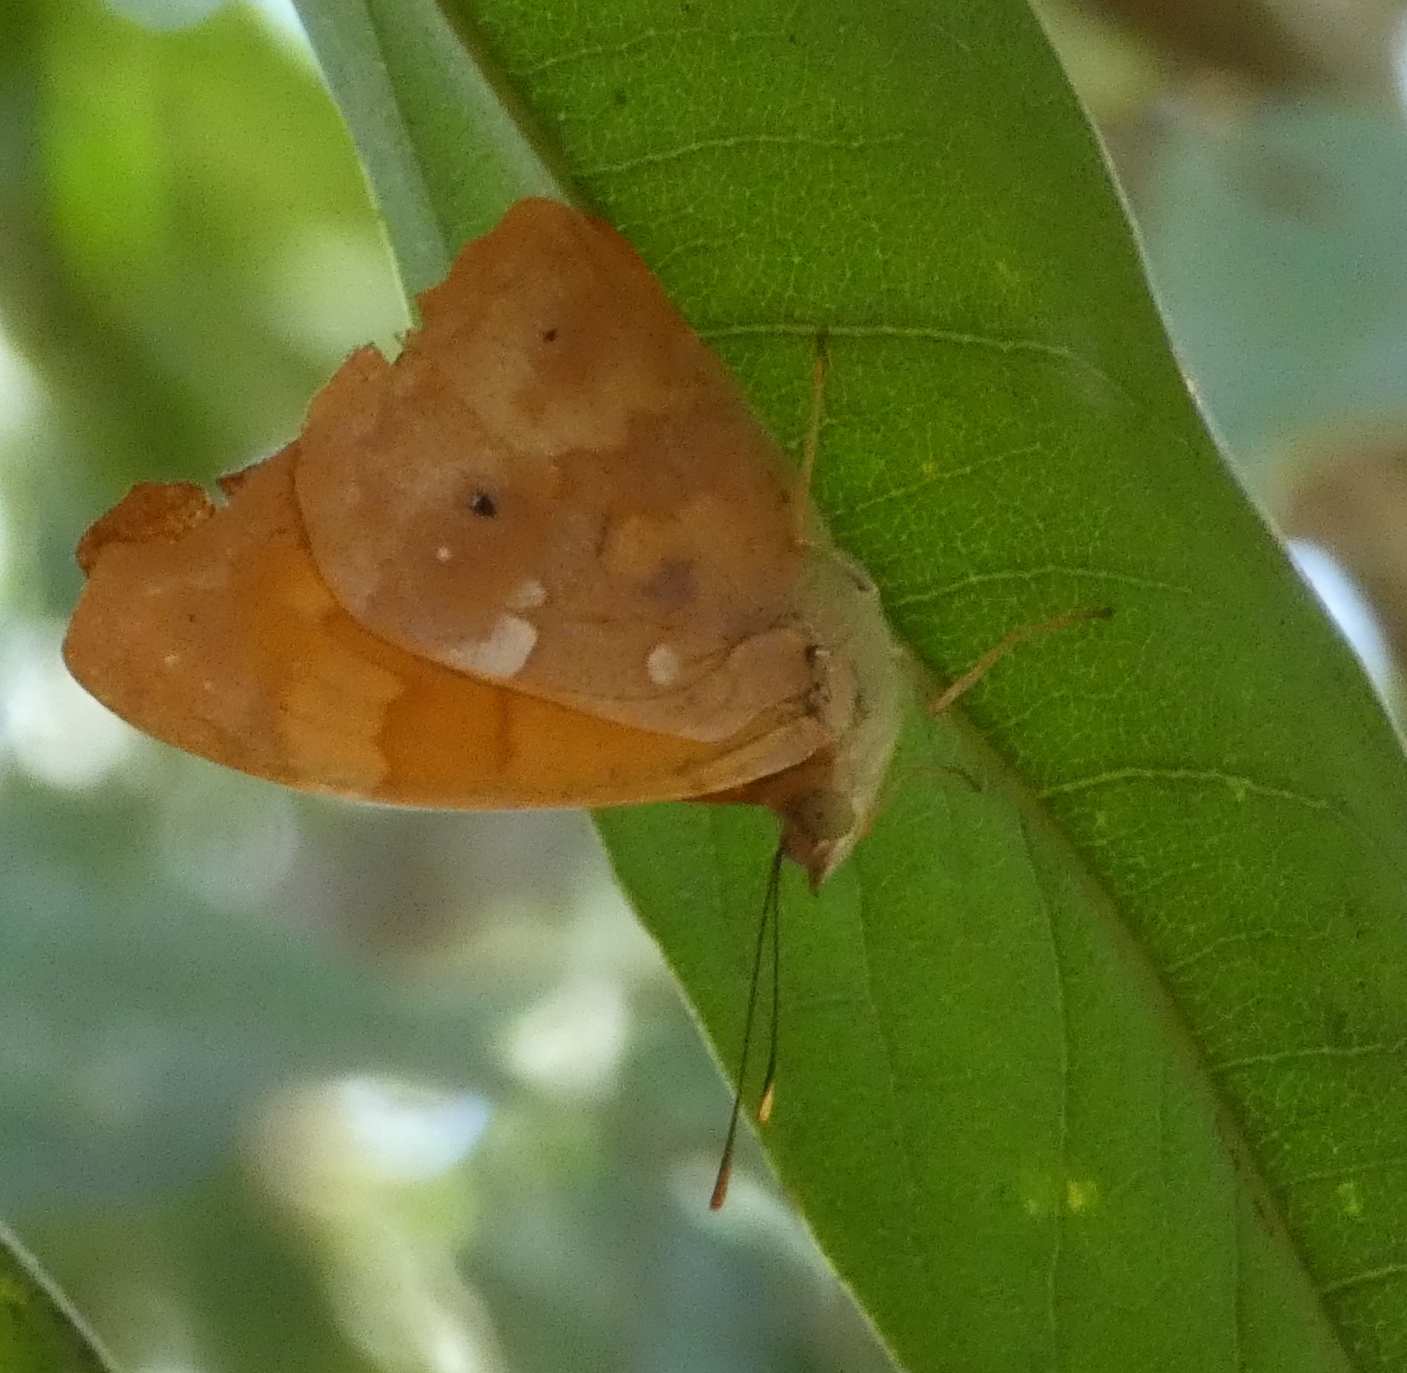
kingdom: Animalia
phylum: Arthropoda
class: Insecta
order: Lepidoptera
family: Nymphalidae
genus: Temenis
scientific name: Temenis laothoe
